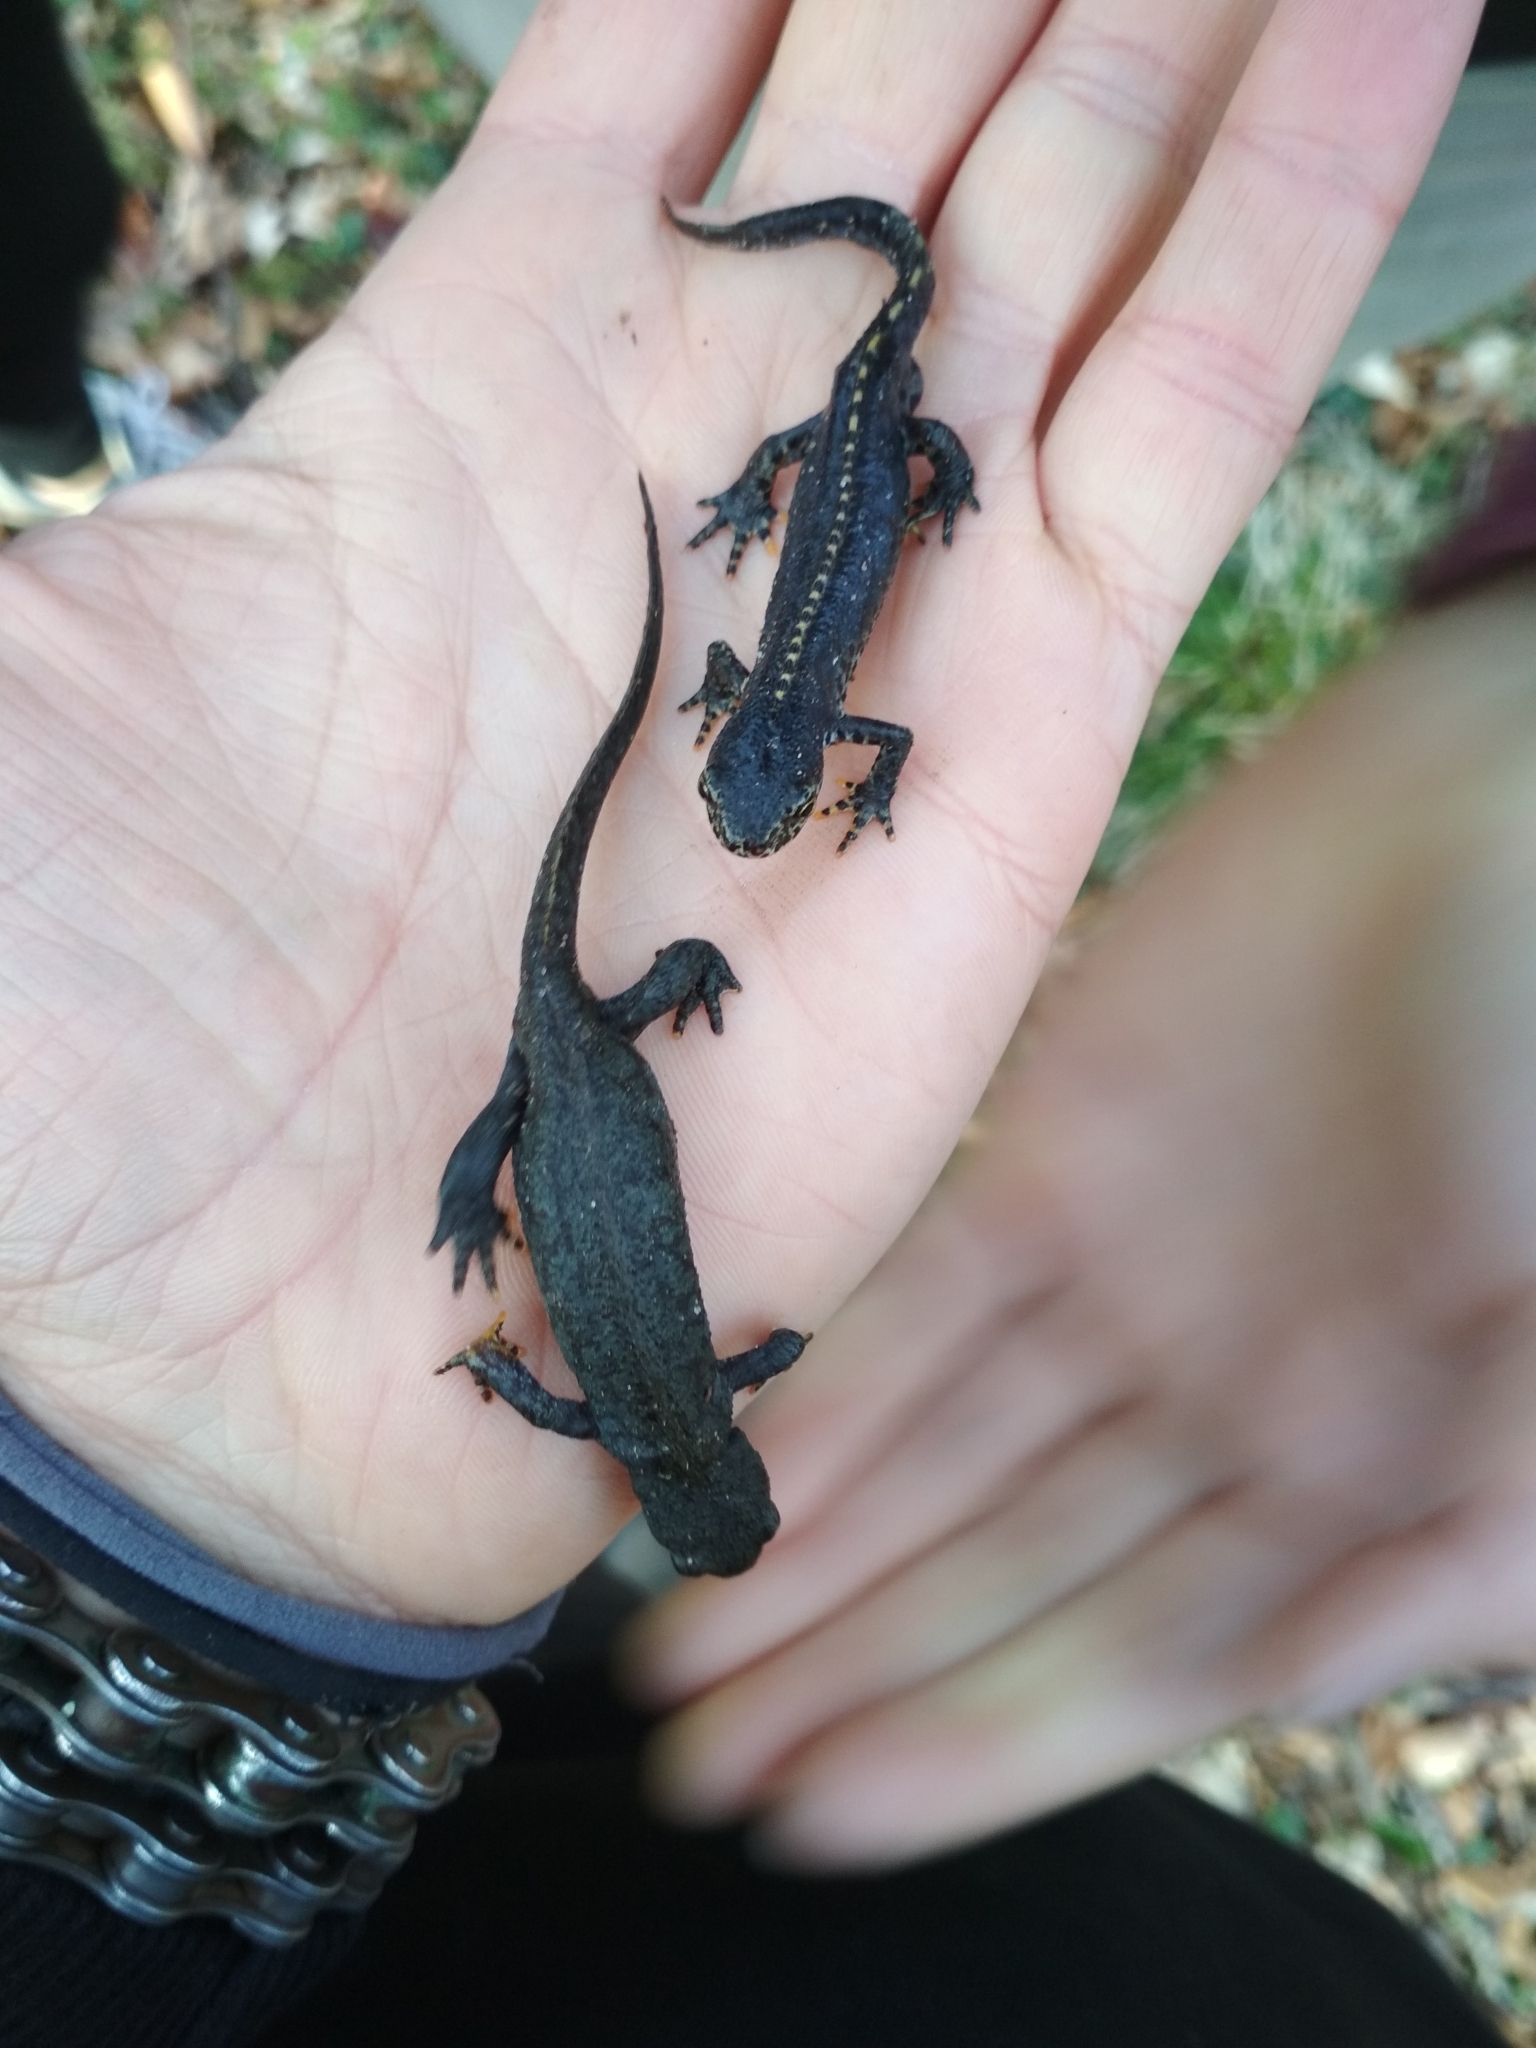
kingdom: Animalia
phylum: Chordata
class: Amphibia
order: Caudata
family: Salamandridae
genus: Ichthyosaura
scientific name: Ichthyosaura alpestris
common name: Alpine newt
